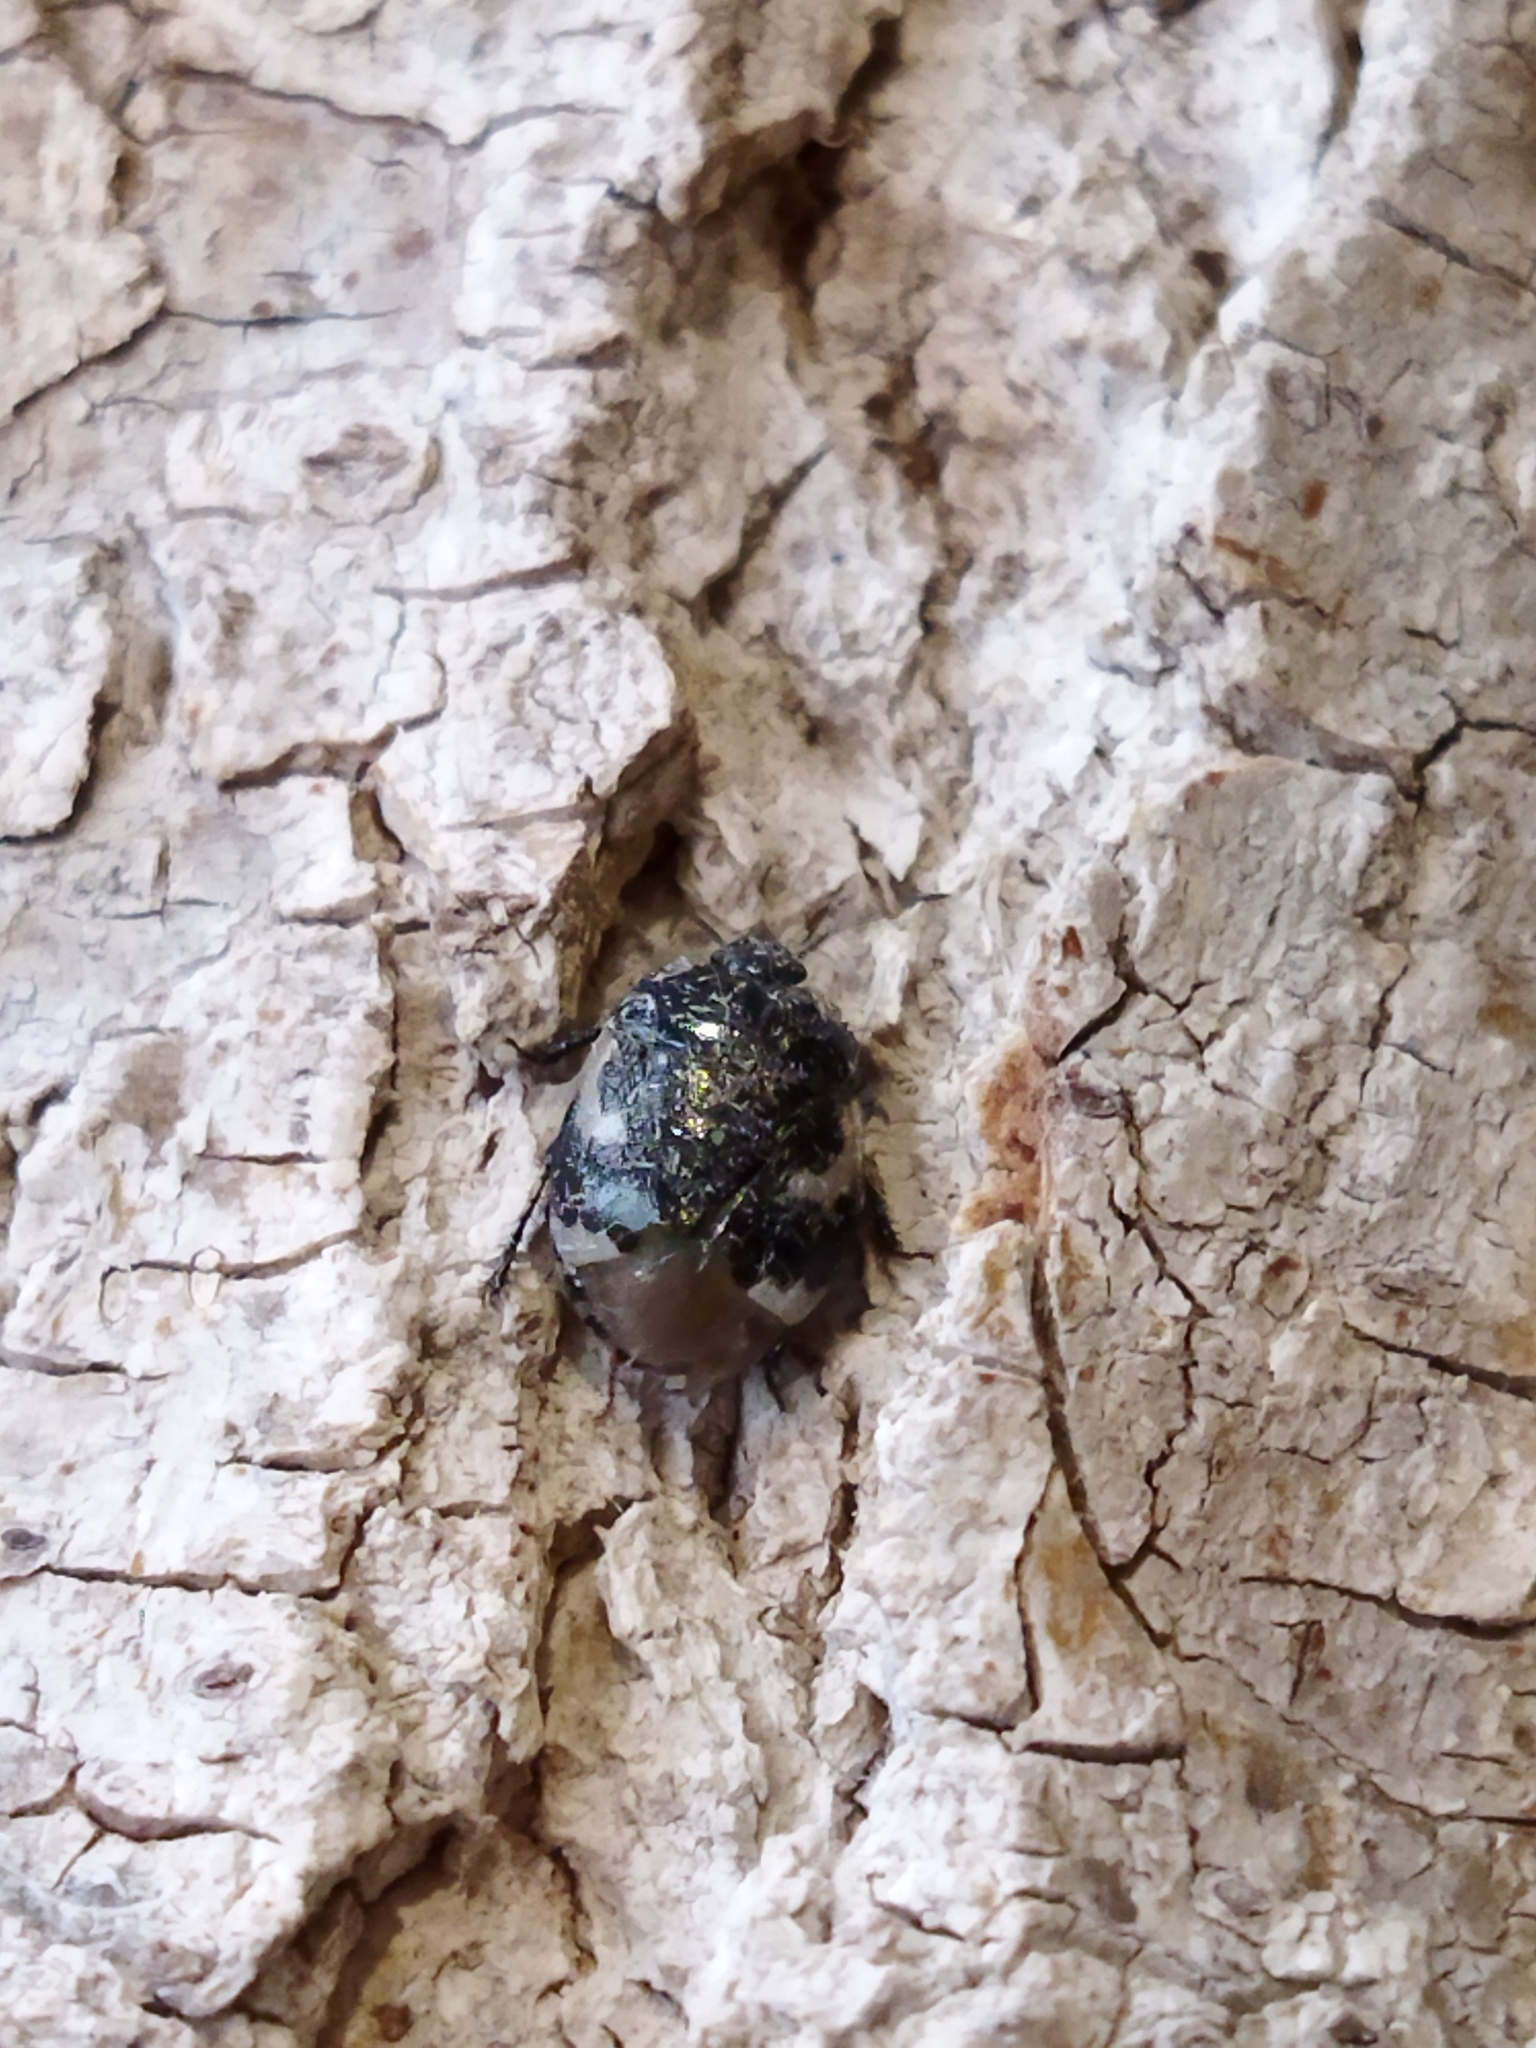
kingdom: Animalia
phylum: Arthropoda
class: Insecta
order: Hemiptera
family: Cydnidae
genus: Tritomegas
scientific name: Tritomegas bicolor
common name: Pied shieldbug
